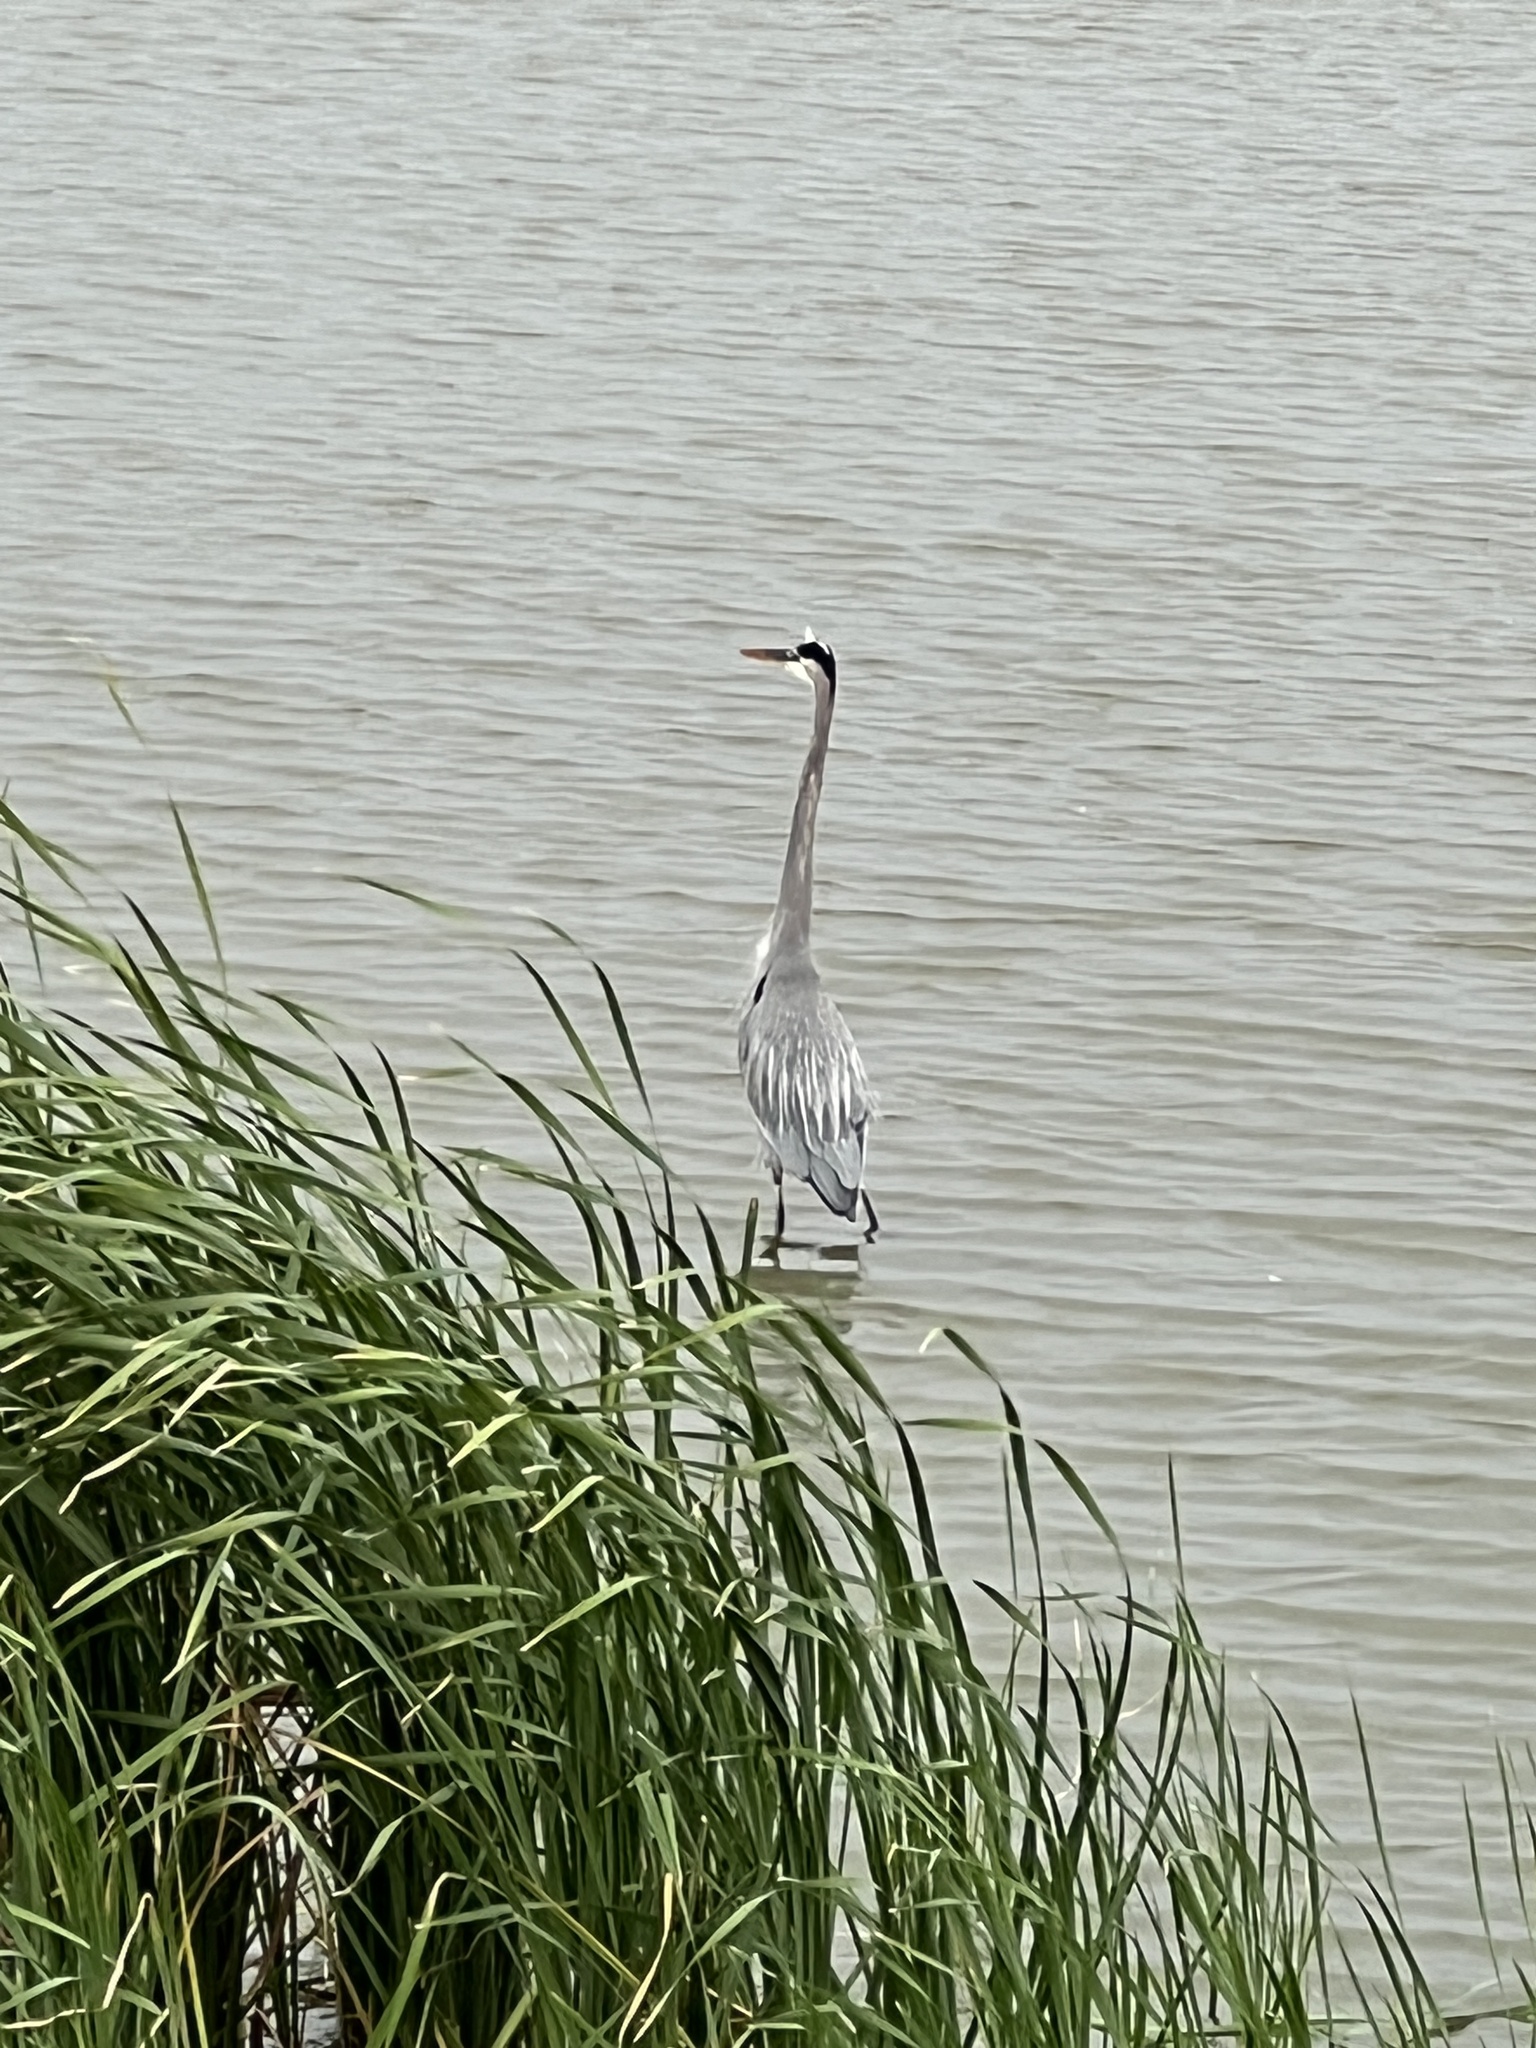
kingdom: Animalia
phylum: Chordata
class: Aves
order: Pelecaniformes
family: Ardeidae
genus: Ardea
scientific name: Ardea herodias
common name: Great blue heron
